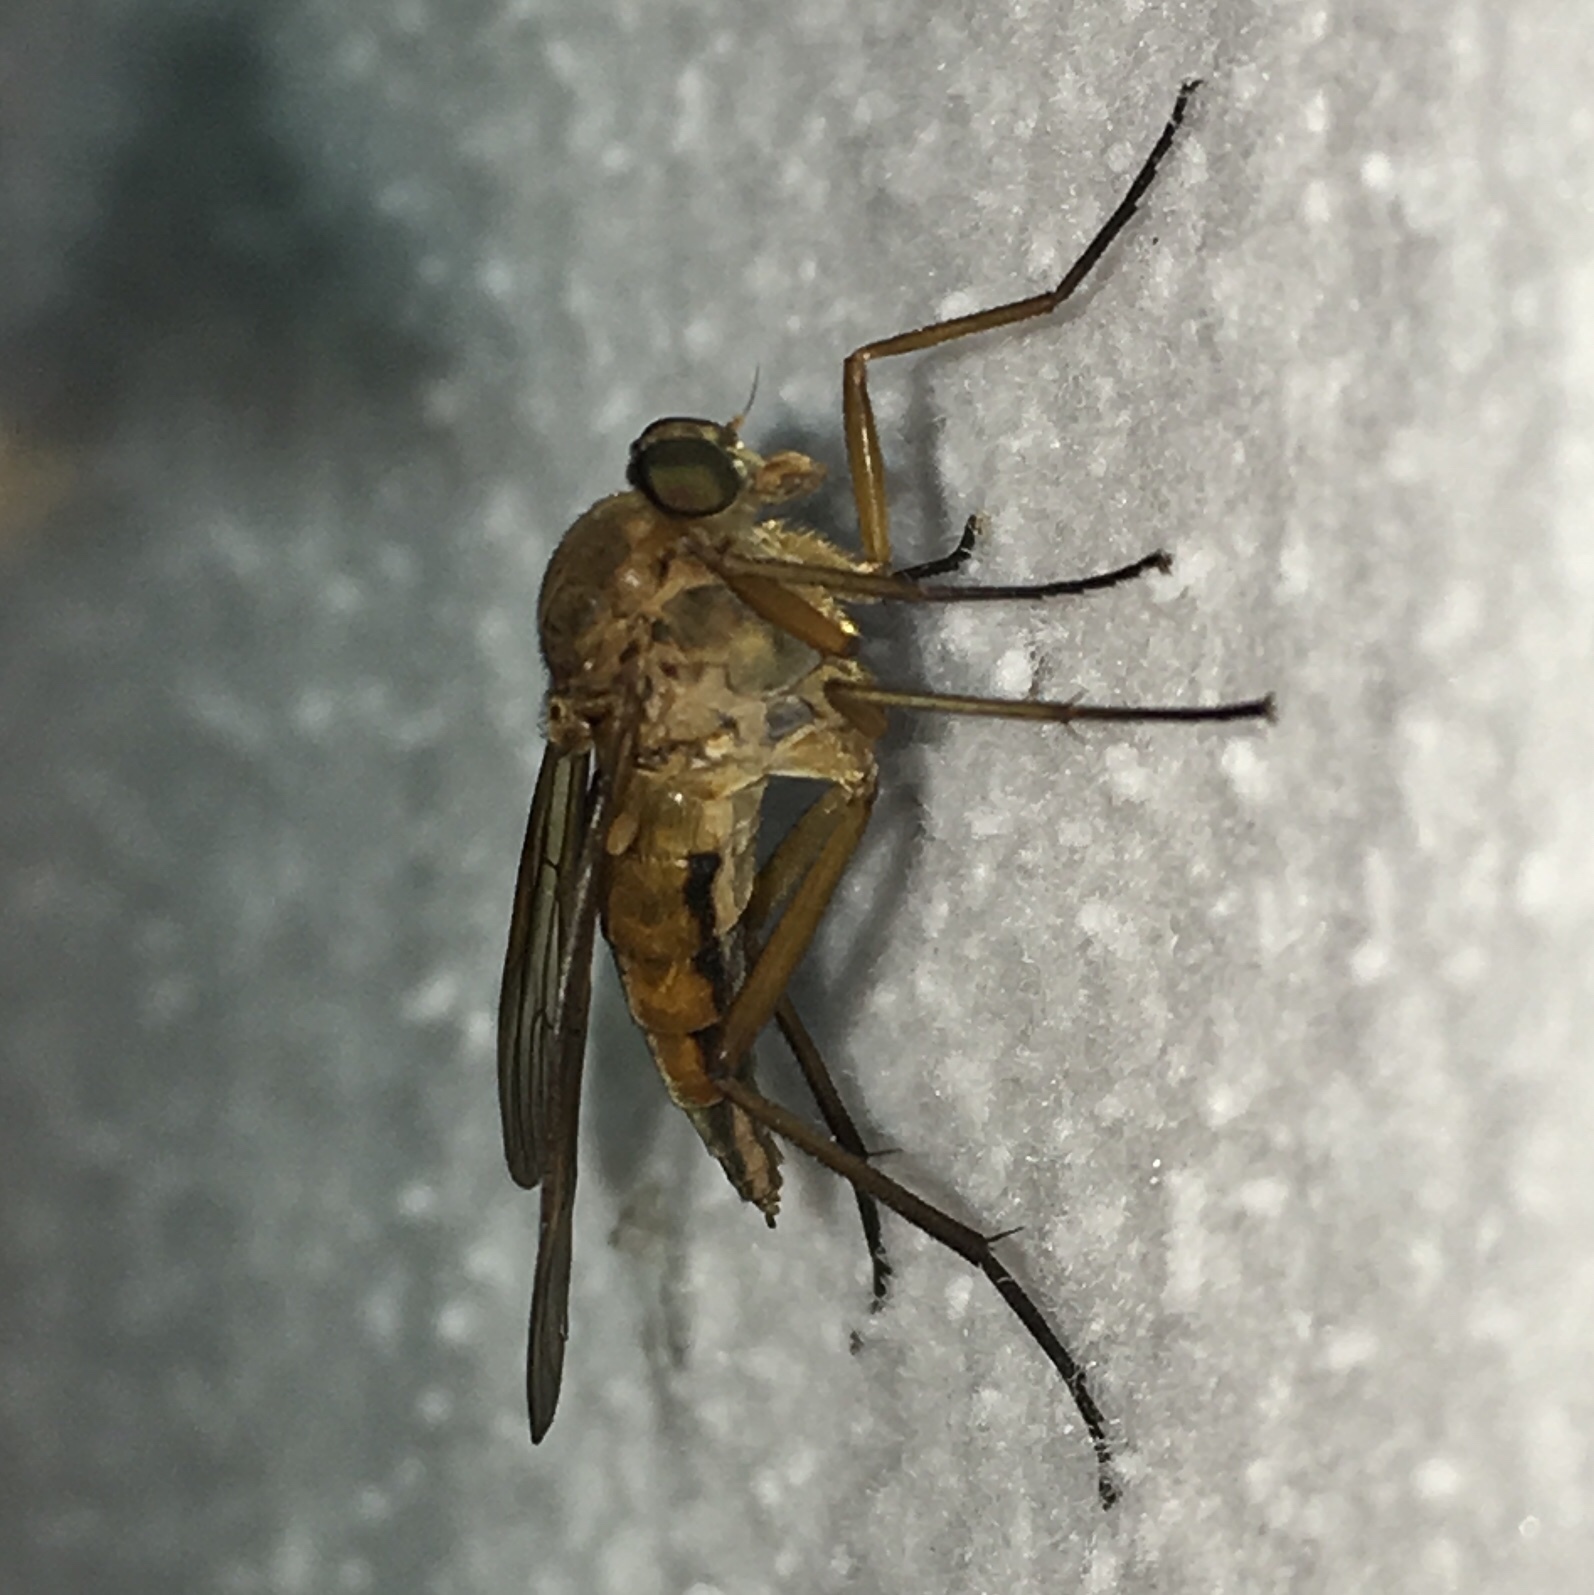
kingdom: Animalia
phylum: Arthropoda
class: Insecta
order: Diptera
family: Rhagionidae
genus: Rhagio
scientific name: Rhagio tringaria
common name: Marsh snipefly
